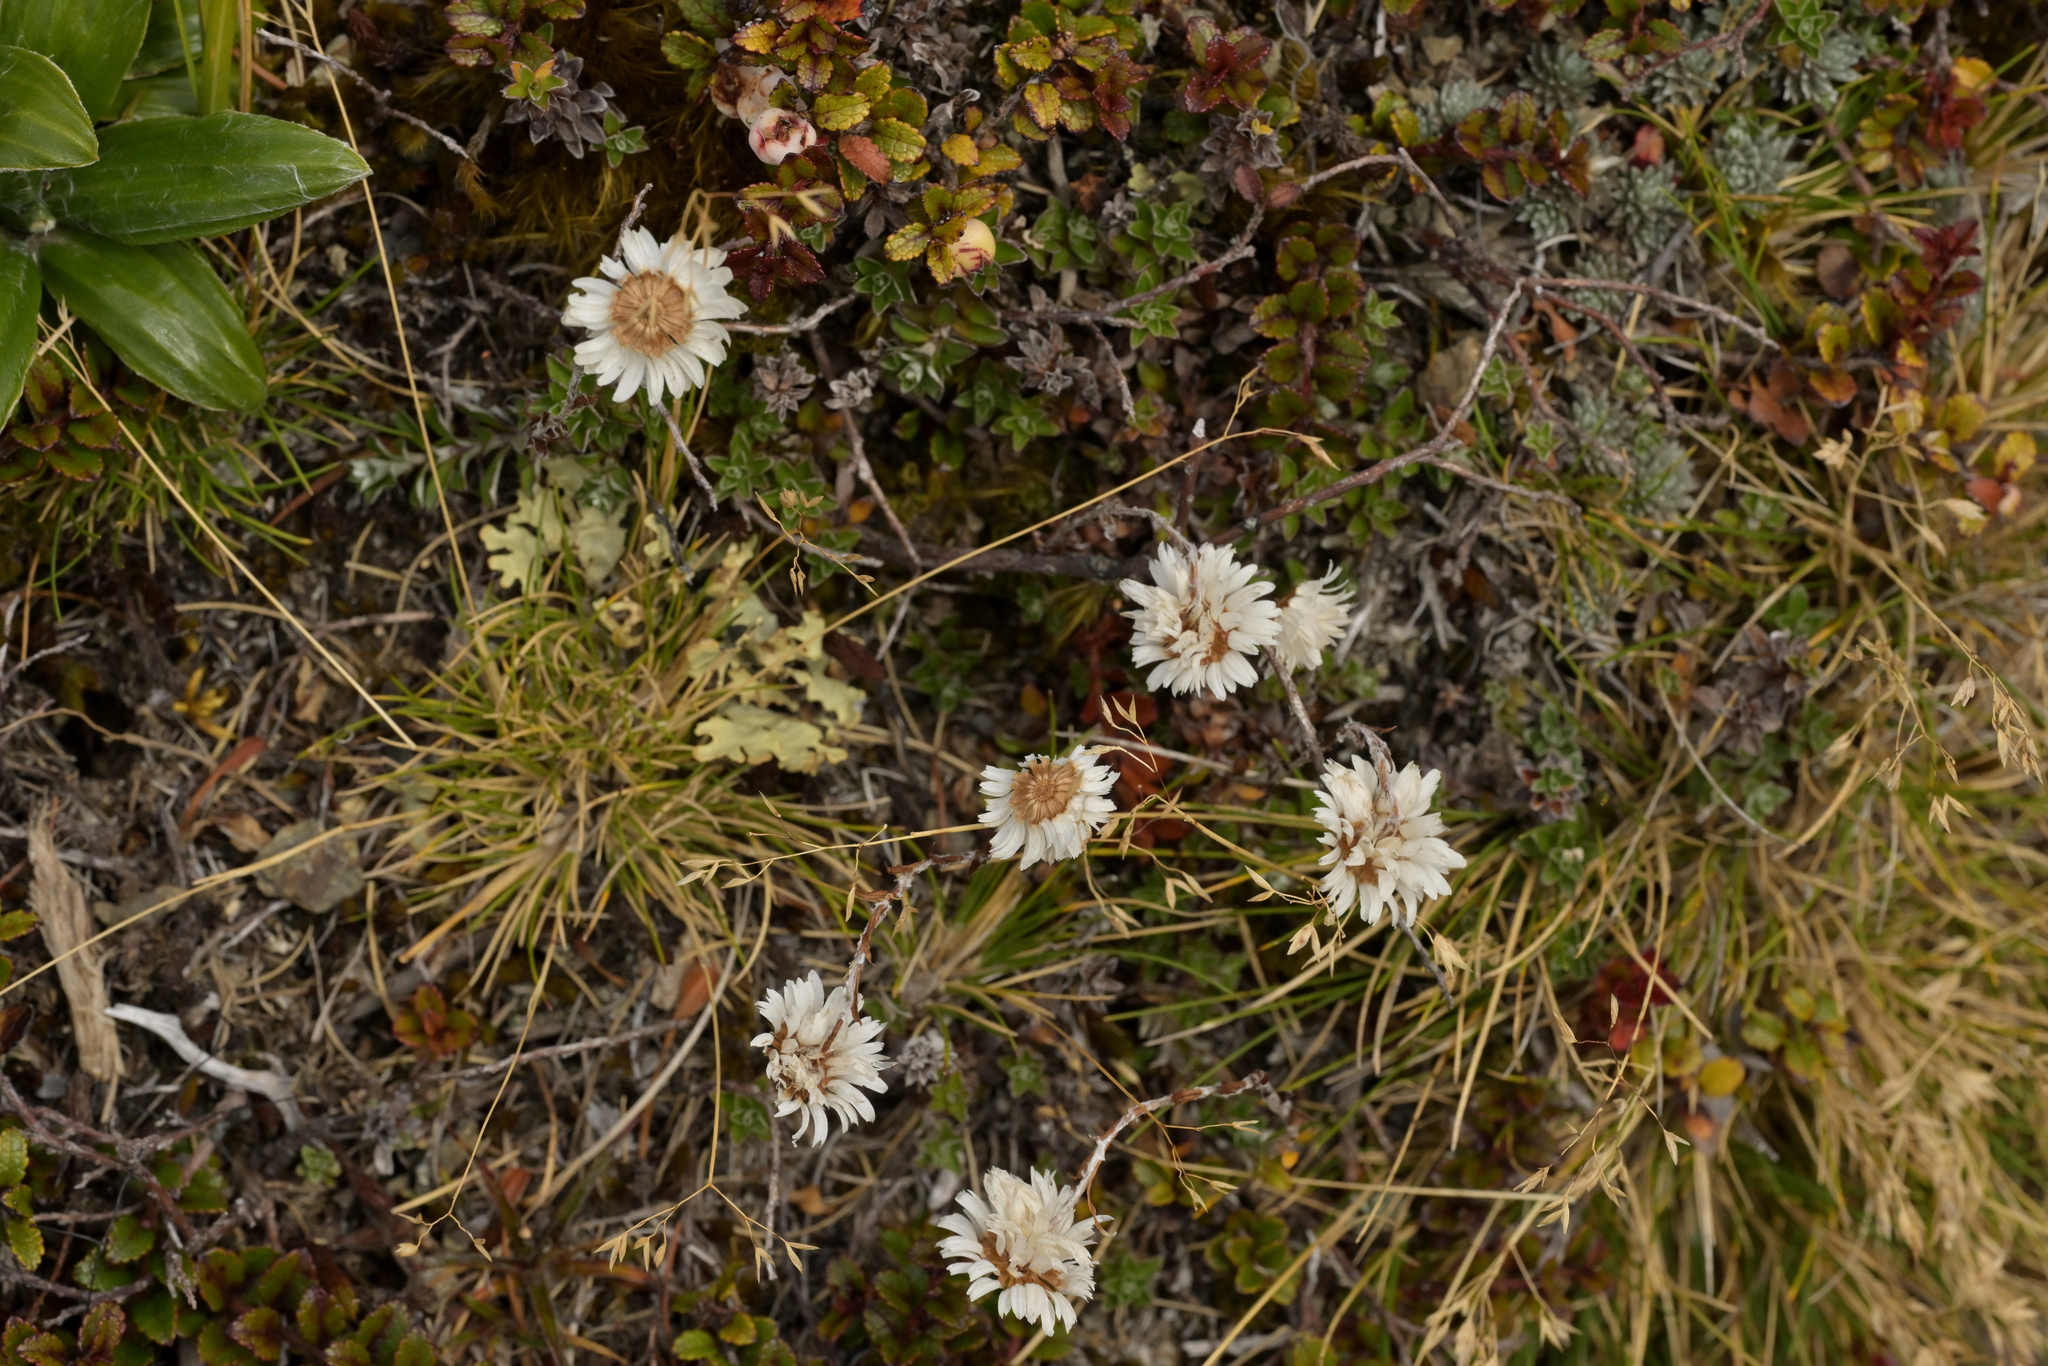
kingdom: Plantae
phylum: Tracheophyta
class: Magnoliopsida
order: Asterales
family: Asteraceae
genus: Anaphalioides
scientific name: Anaphalioides alpina
